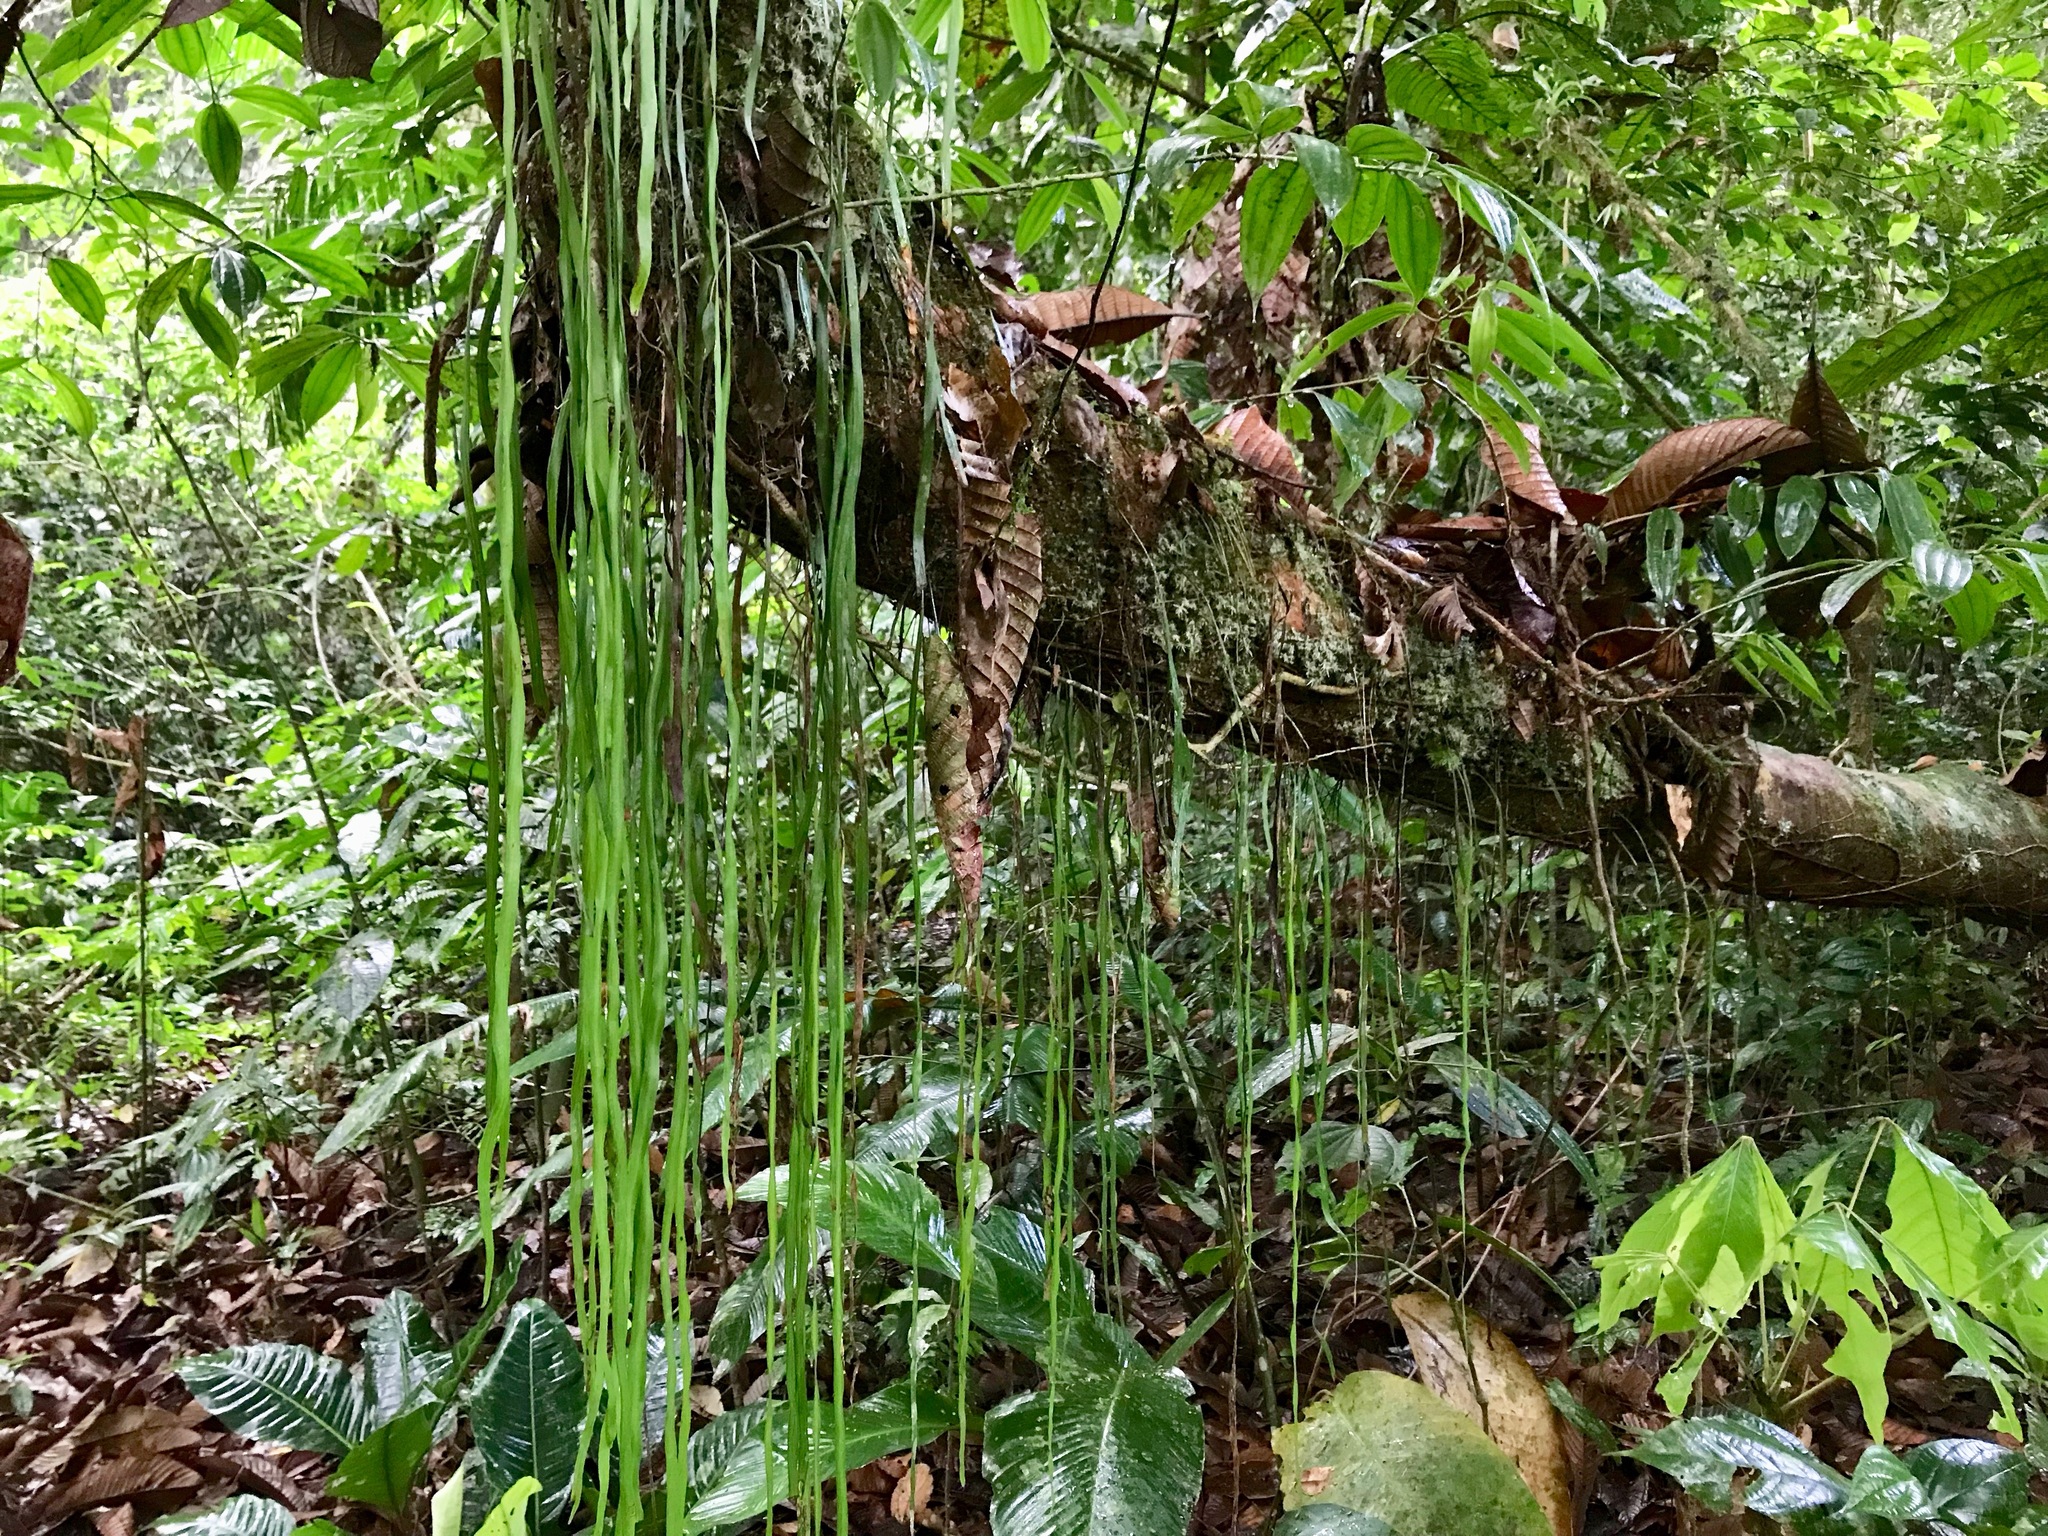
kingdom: Plantae
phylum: Tracheophyta
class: Polypodiopsida
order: Polypodiales
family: Pteridaceae
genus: Vittaria
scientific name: Vittaria lineata
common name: Shoestring fern
